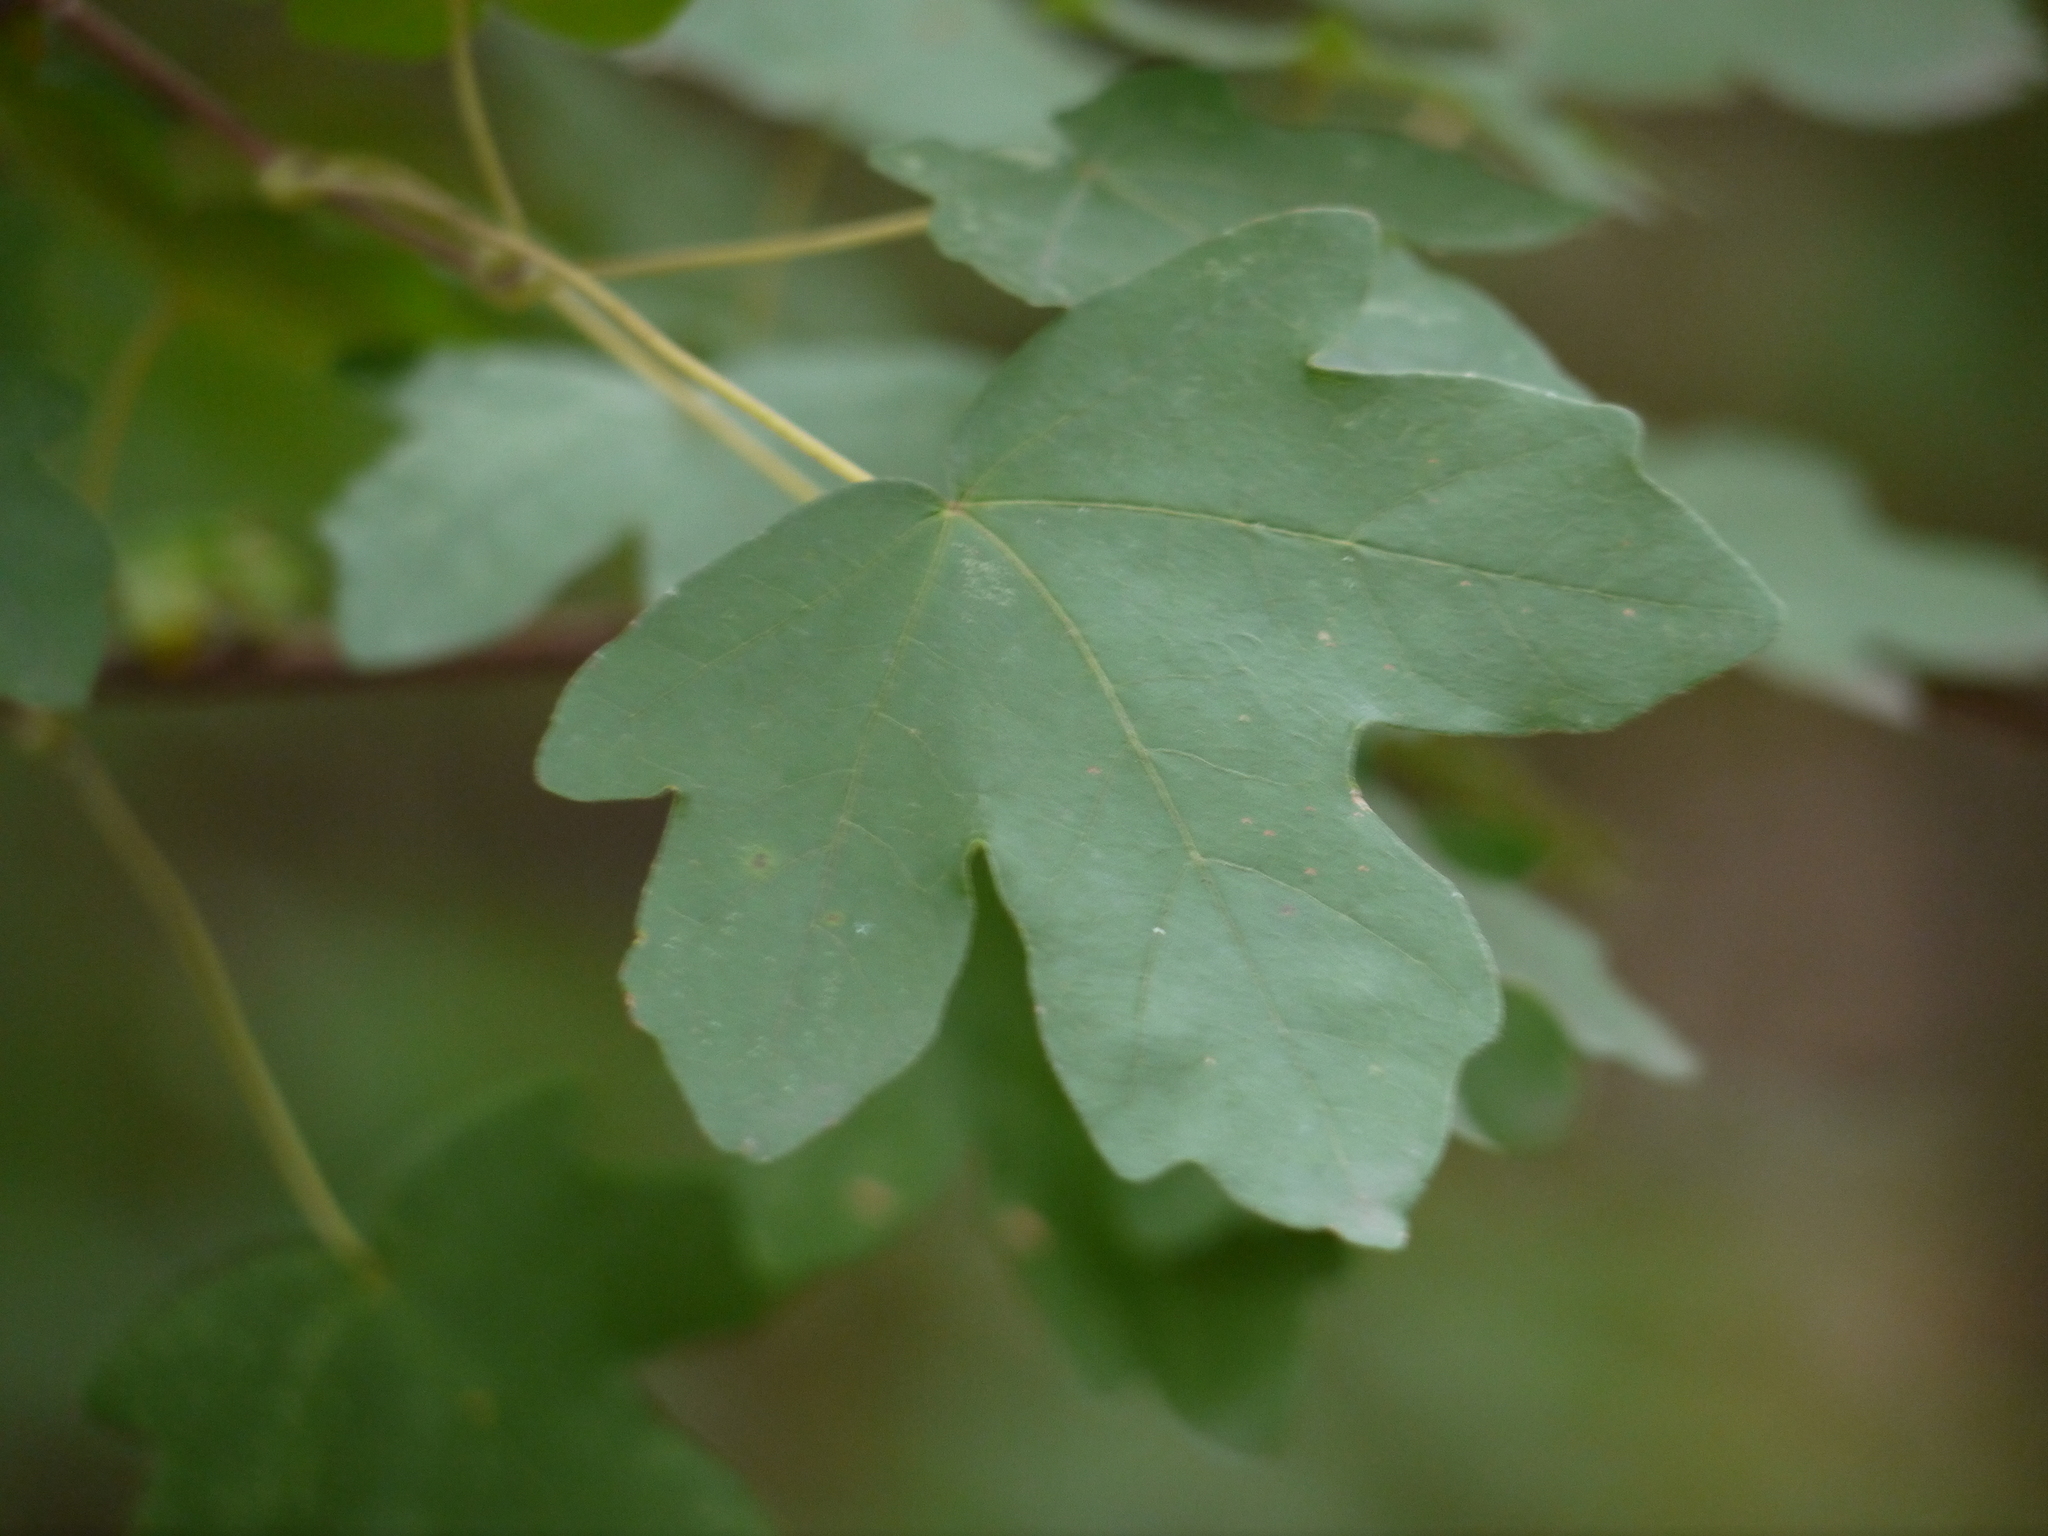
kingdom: Plantae
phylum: Tracheophyta
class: Magnoliopsida
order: Sapindales
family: Sapindaceae
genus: Acer
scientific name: Acer campestre
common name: Field maple
